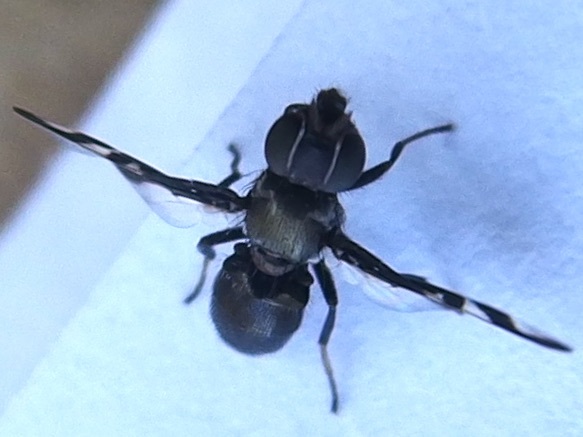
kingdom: Animalia
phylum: Arthropoda
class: Insecta
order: Diptera
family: Platystomatidae
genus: Rivellia
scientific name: Rivellia wulpiana
